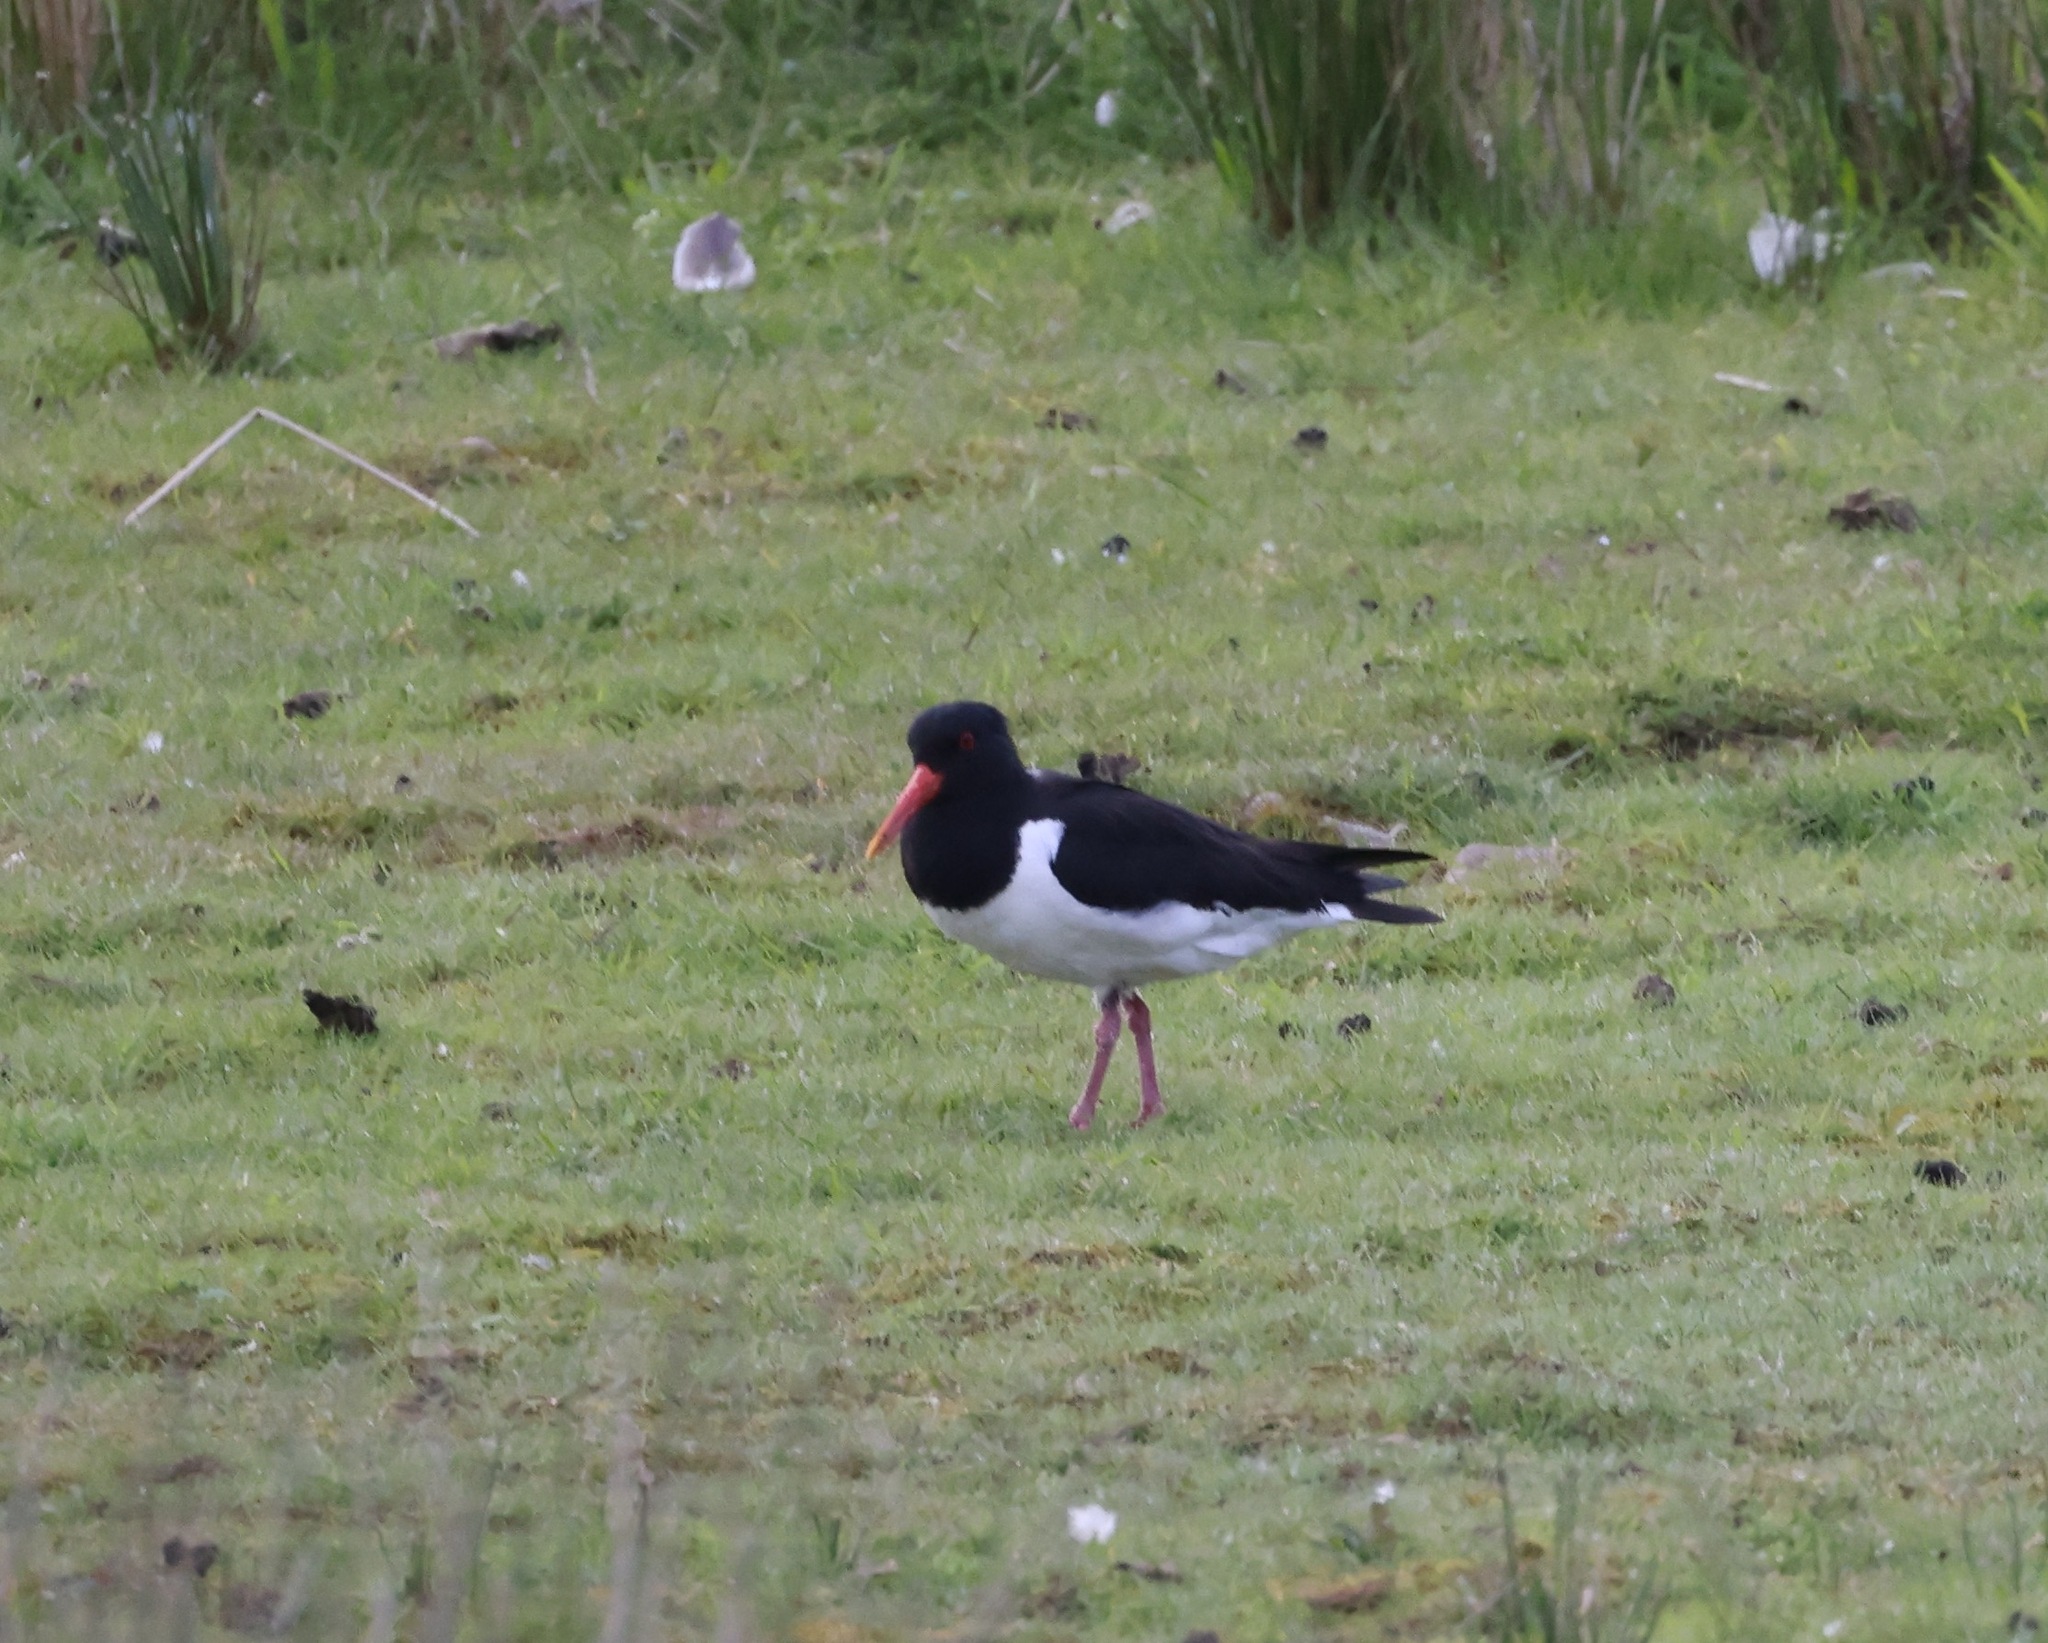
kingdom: Animalia
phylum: Chordata
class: Aves
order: Charadriiformes
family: Haematopodidae
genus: Haematopus
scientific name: Haematopus ostralegus
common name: Eurasian oystercatcher
